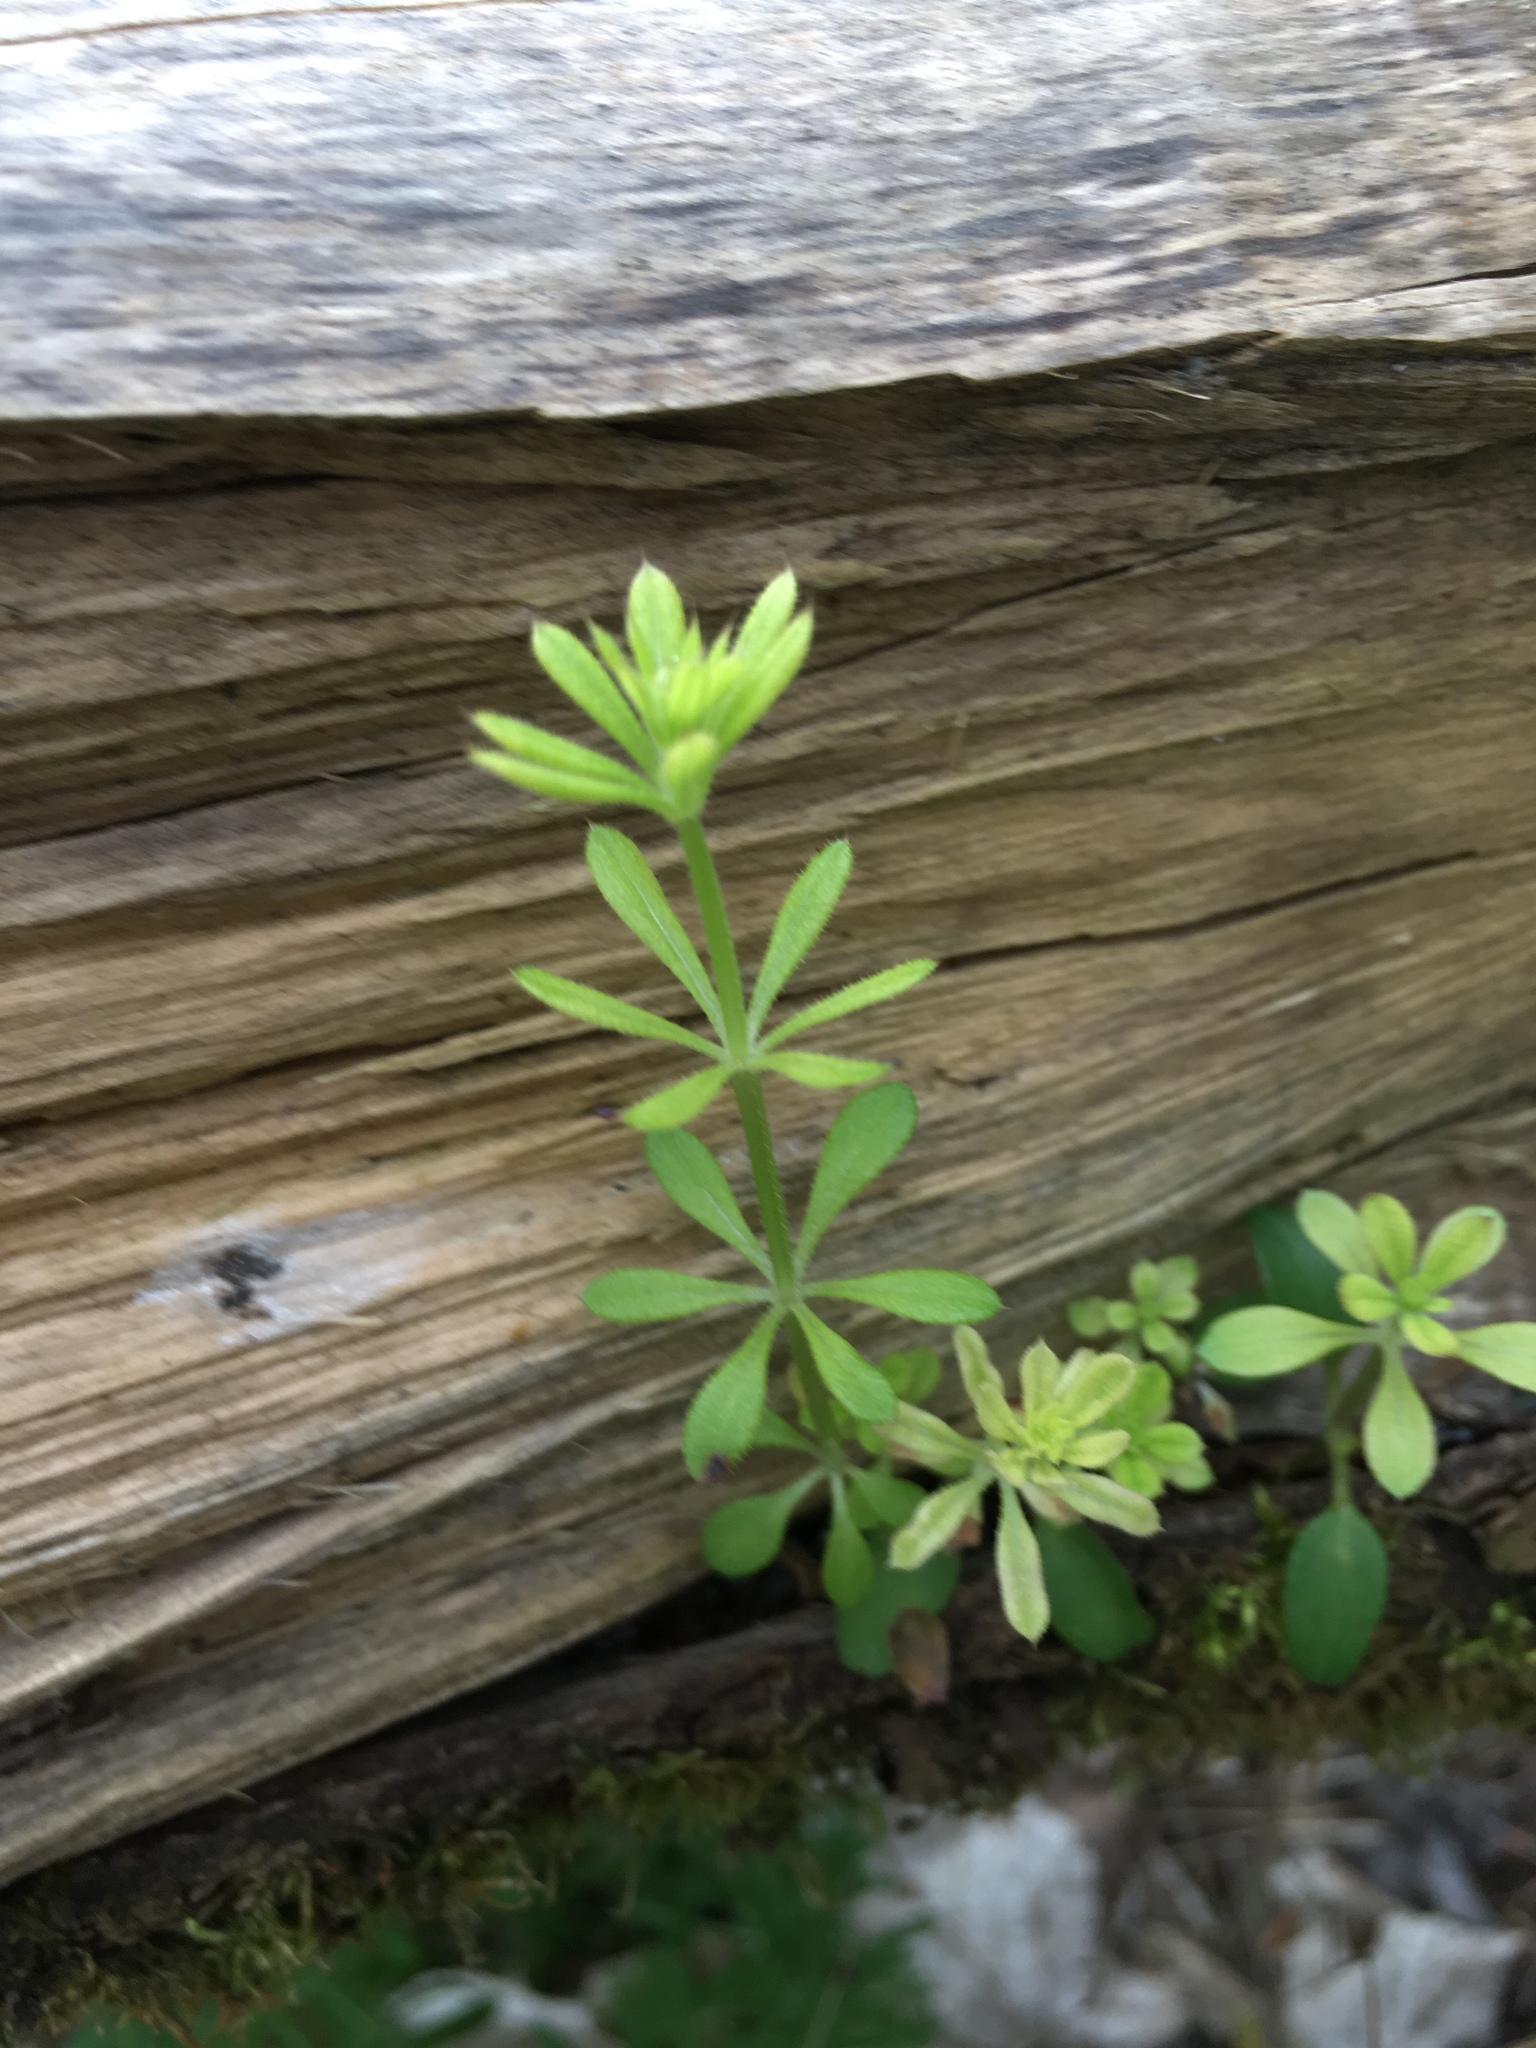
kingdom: Plantae
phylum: Tracheophyta
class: Magnoliopsida
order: Gentianales
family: Rubiaceae
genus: Galium
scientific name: Galium aparine
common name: Cleavers
